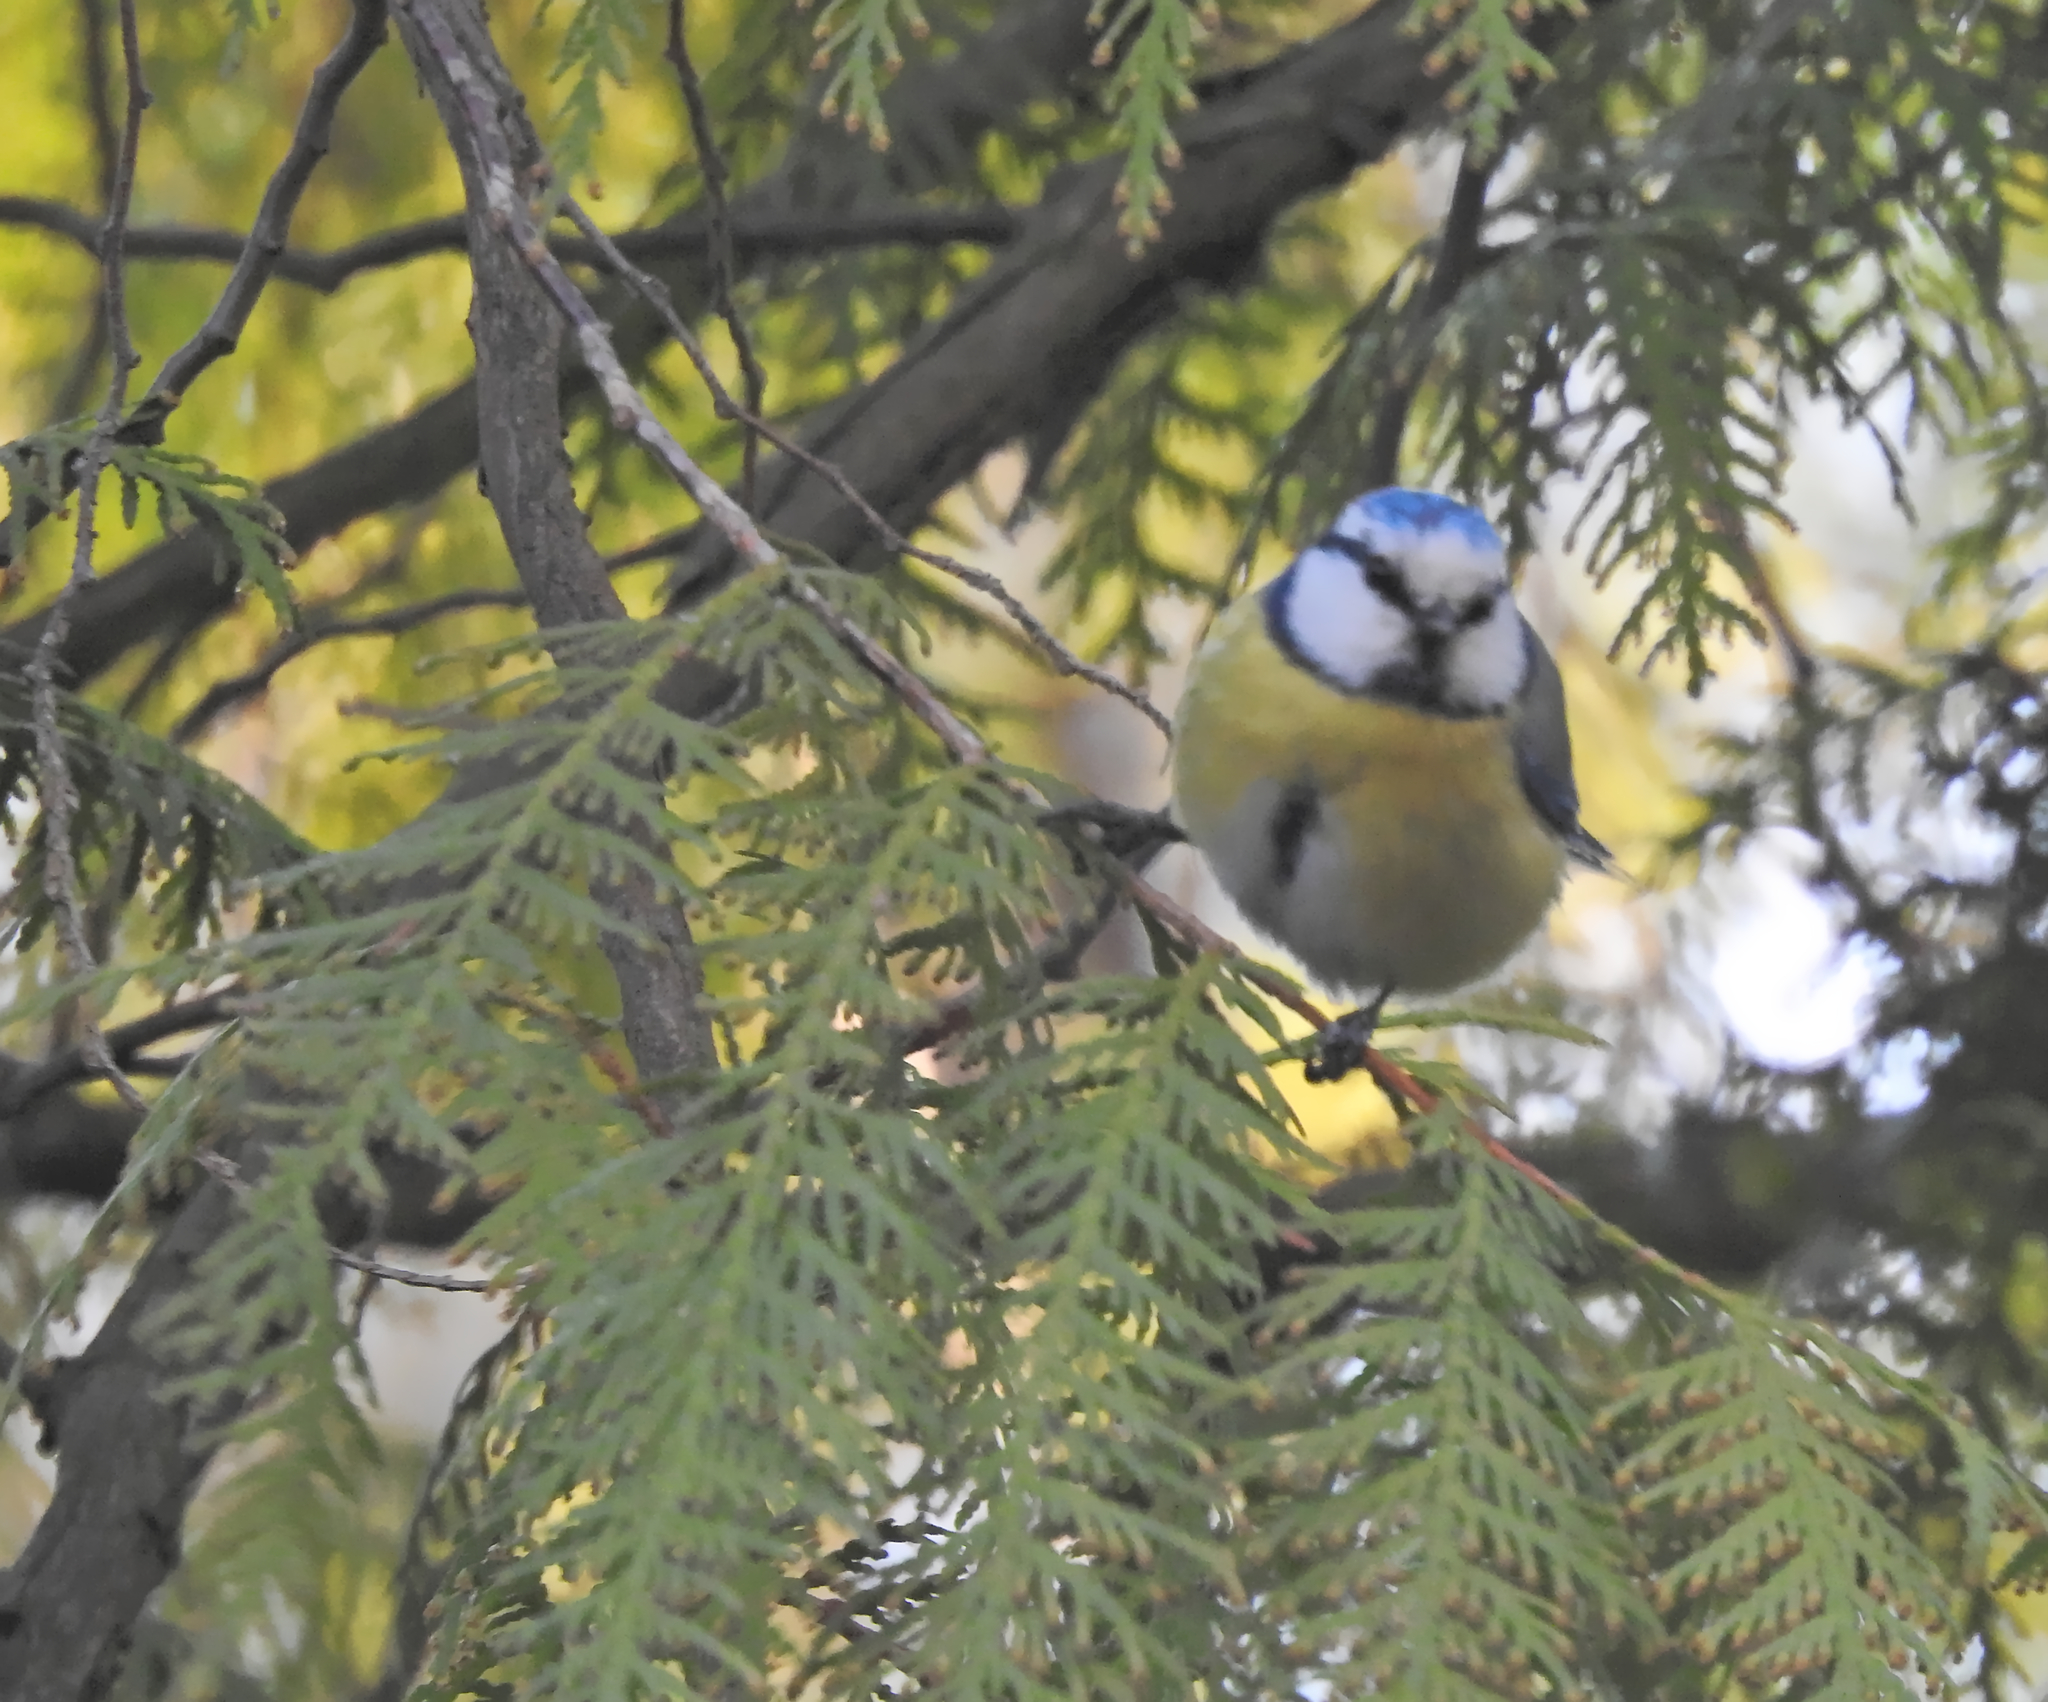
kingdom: Animalia
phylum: Chordata
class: Aves
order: Passeriformes
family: Paridae
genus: Cyanistes
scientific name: Cyanistes caeruleus
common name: Eurasian blue tit
